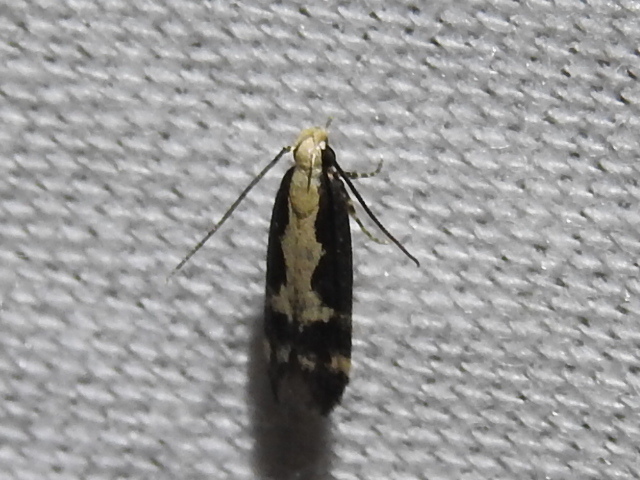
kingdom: Animalia
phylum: Arthropoda
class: Insecta
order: Lepidoptera
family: Gelechiidae
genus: Chionodes
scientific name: Chionodes dentella
